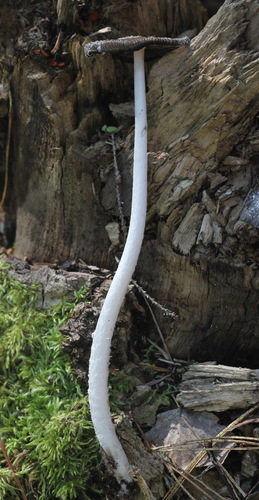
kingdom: Fungi
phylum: Basidiomycota
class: Agaricomycetes
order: Agaricales
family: Psathyrellaceae
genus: Coprinopsis
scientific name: Coprinopsis jonesii
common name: Bonfire inkcap
